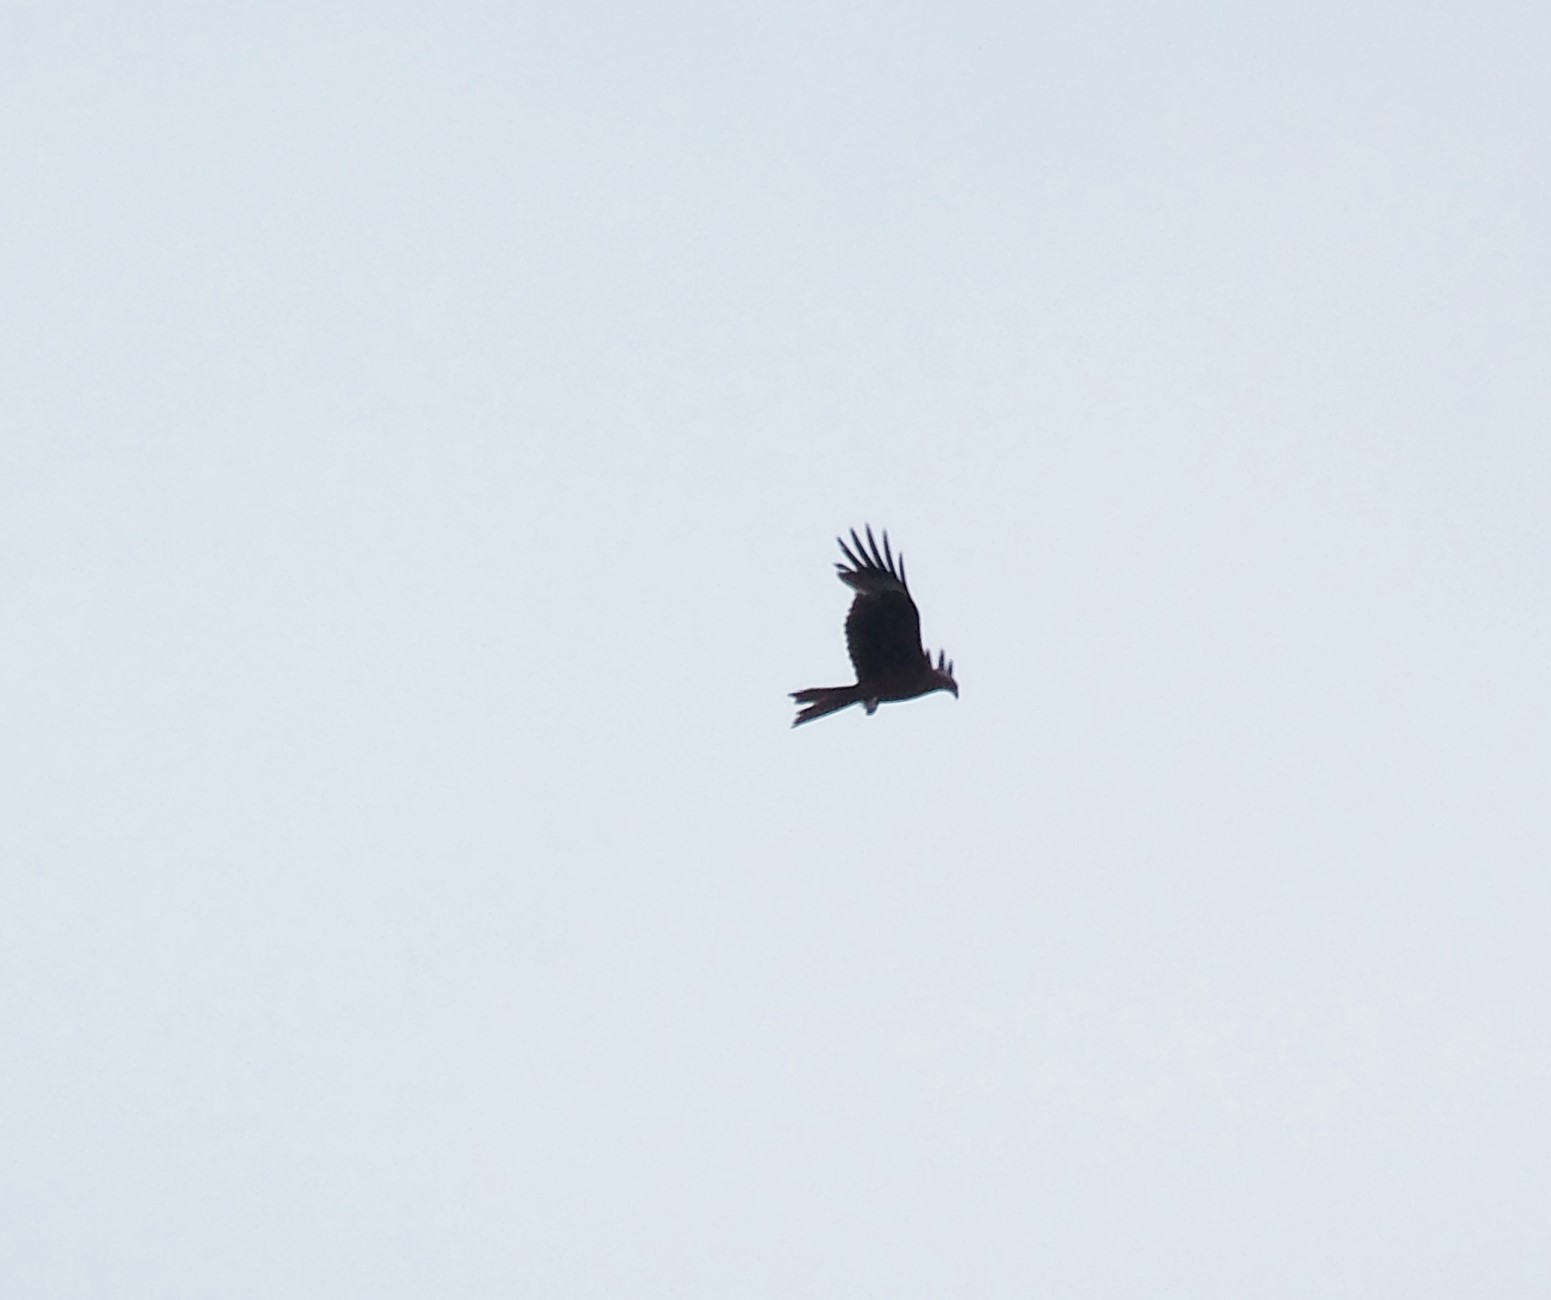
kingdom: Animalia
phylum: Chordata
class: Aves
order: Accipitriformes
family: Accipitridae
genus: Milvus
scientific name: Milvus migrans
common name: Black kite
